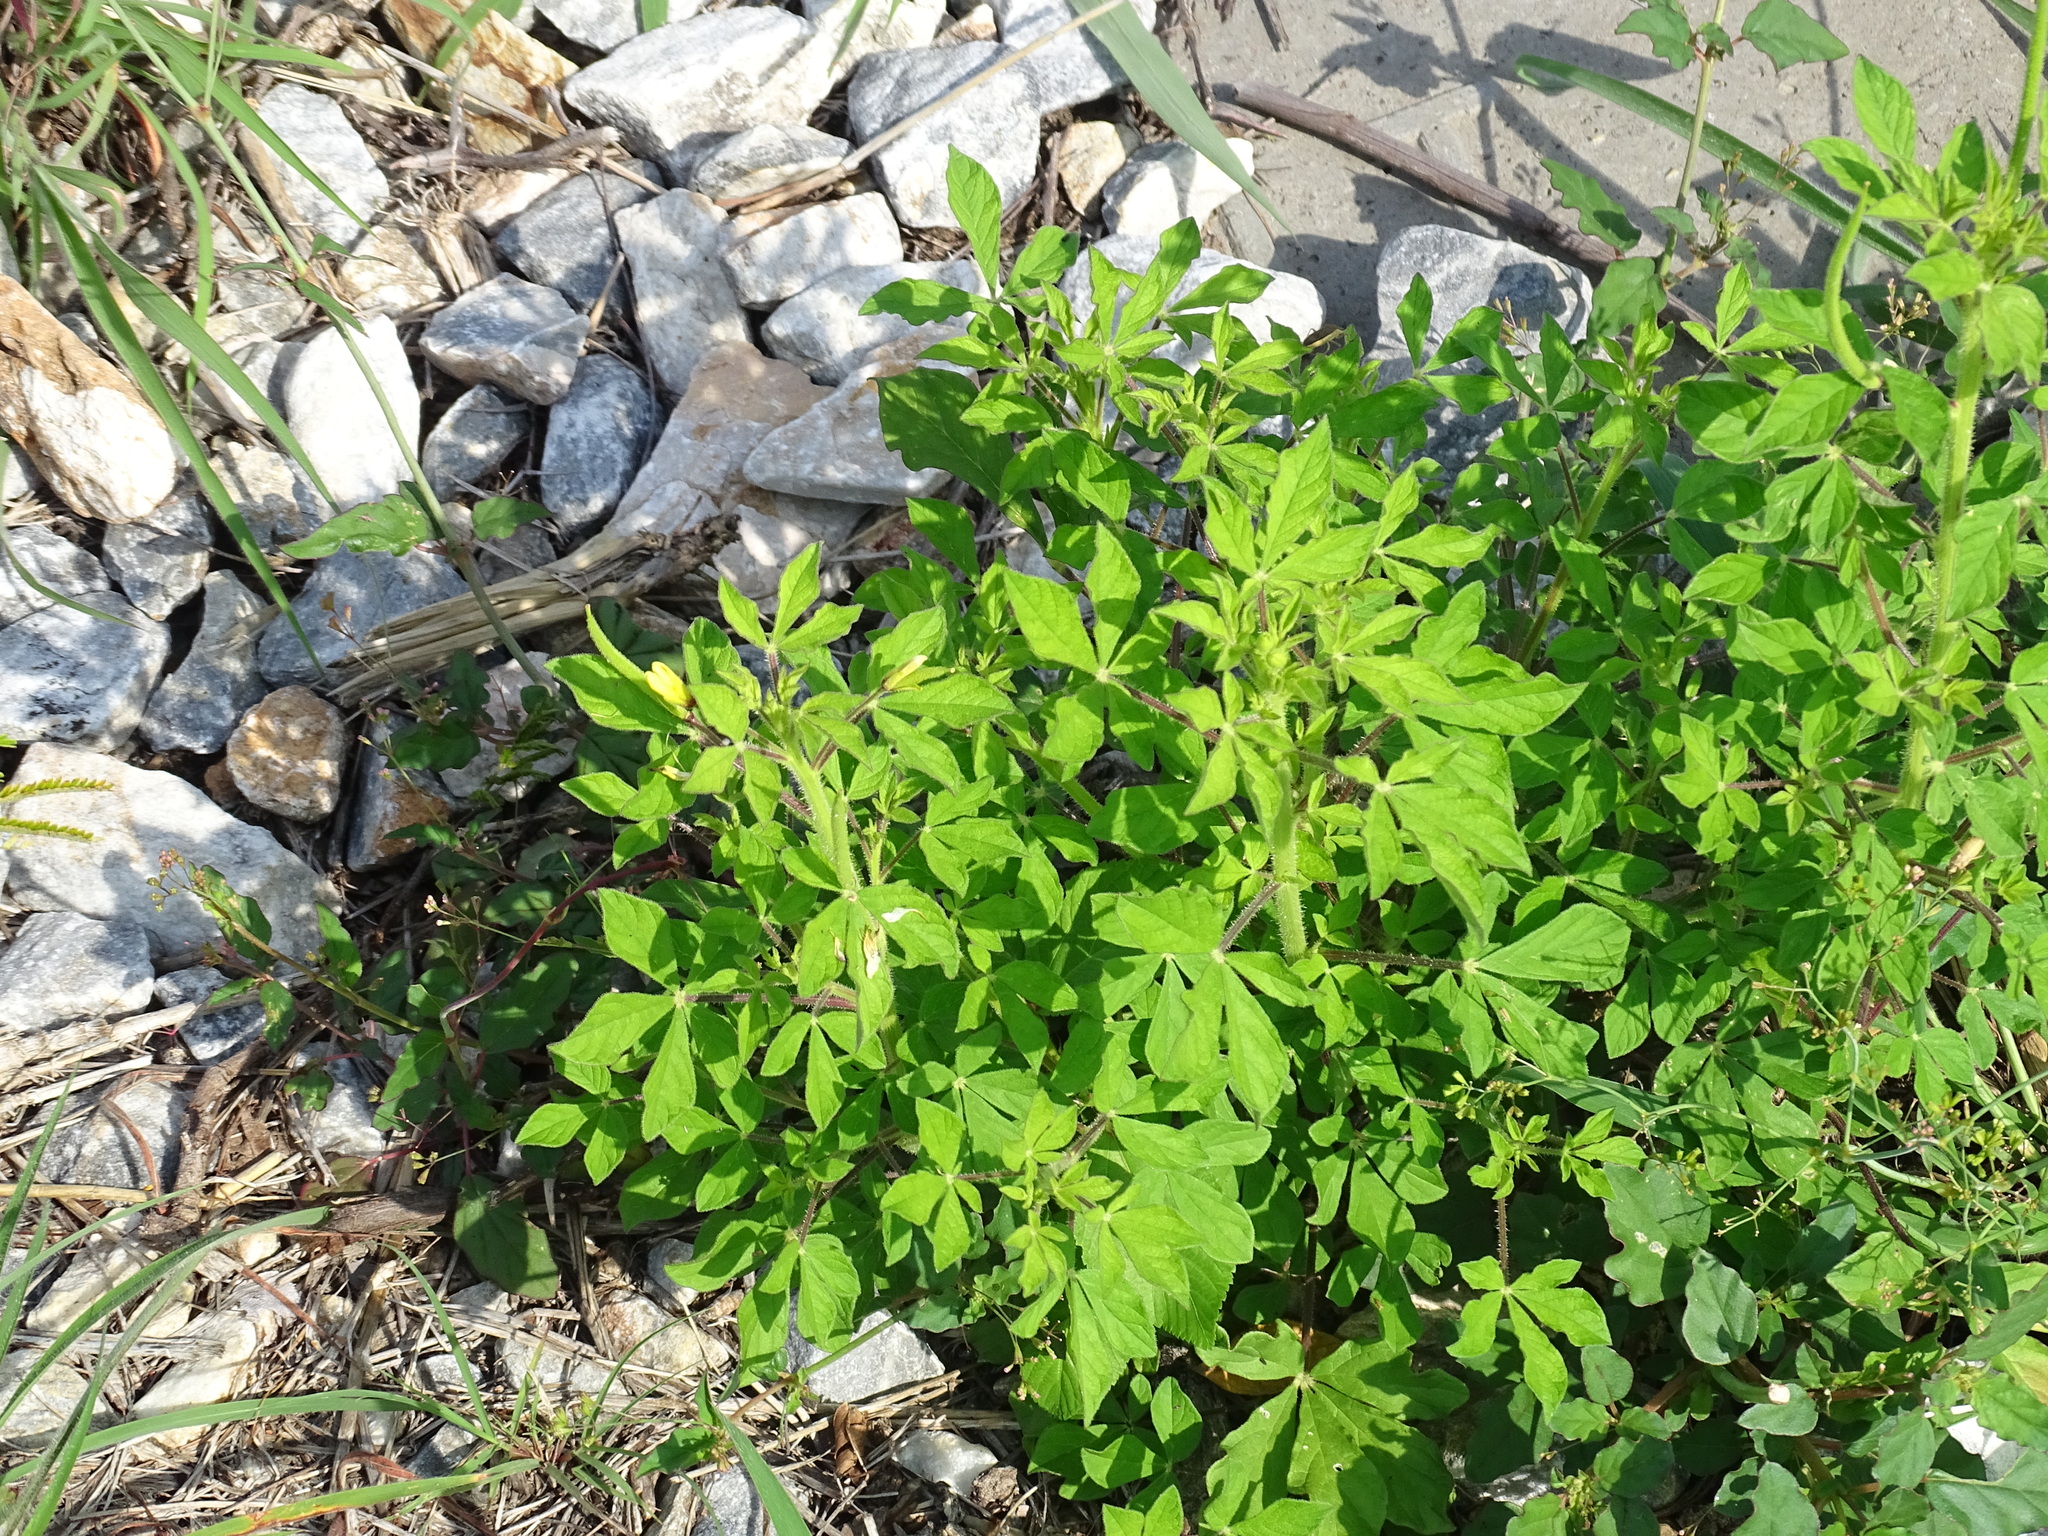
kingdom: Plantae
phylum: Tracheophyta
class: Magnoliopsida
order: Brassicales
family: Cleomaceae
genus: Arivela
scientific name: Arivela viscosa
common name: Asian spiderflower
